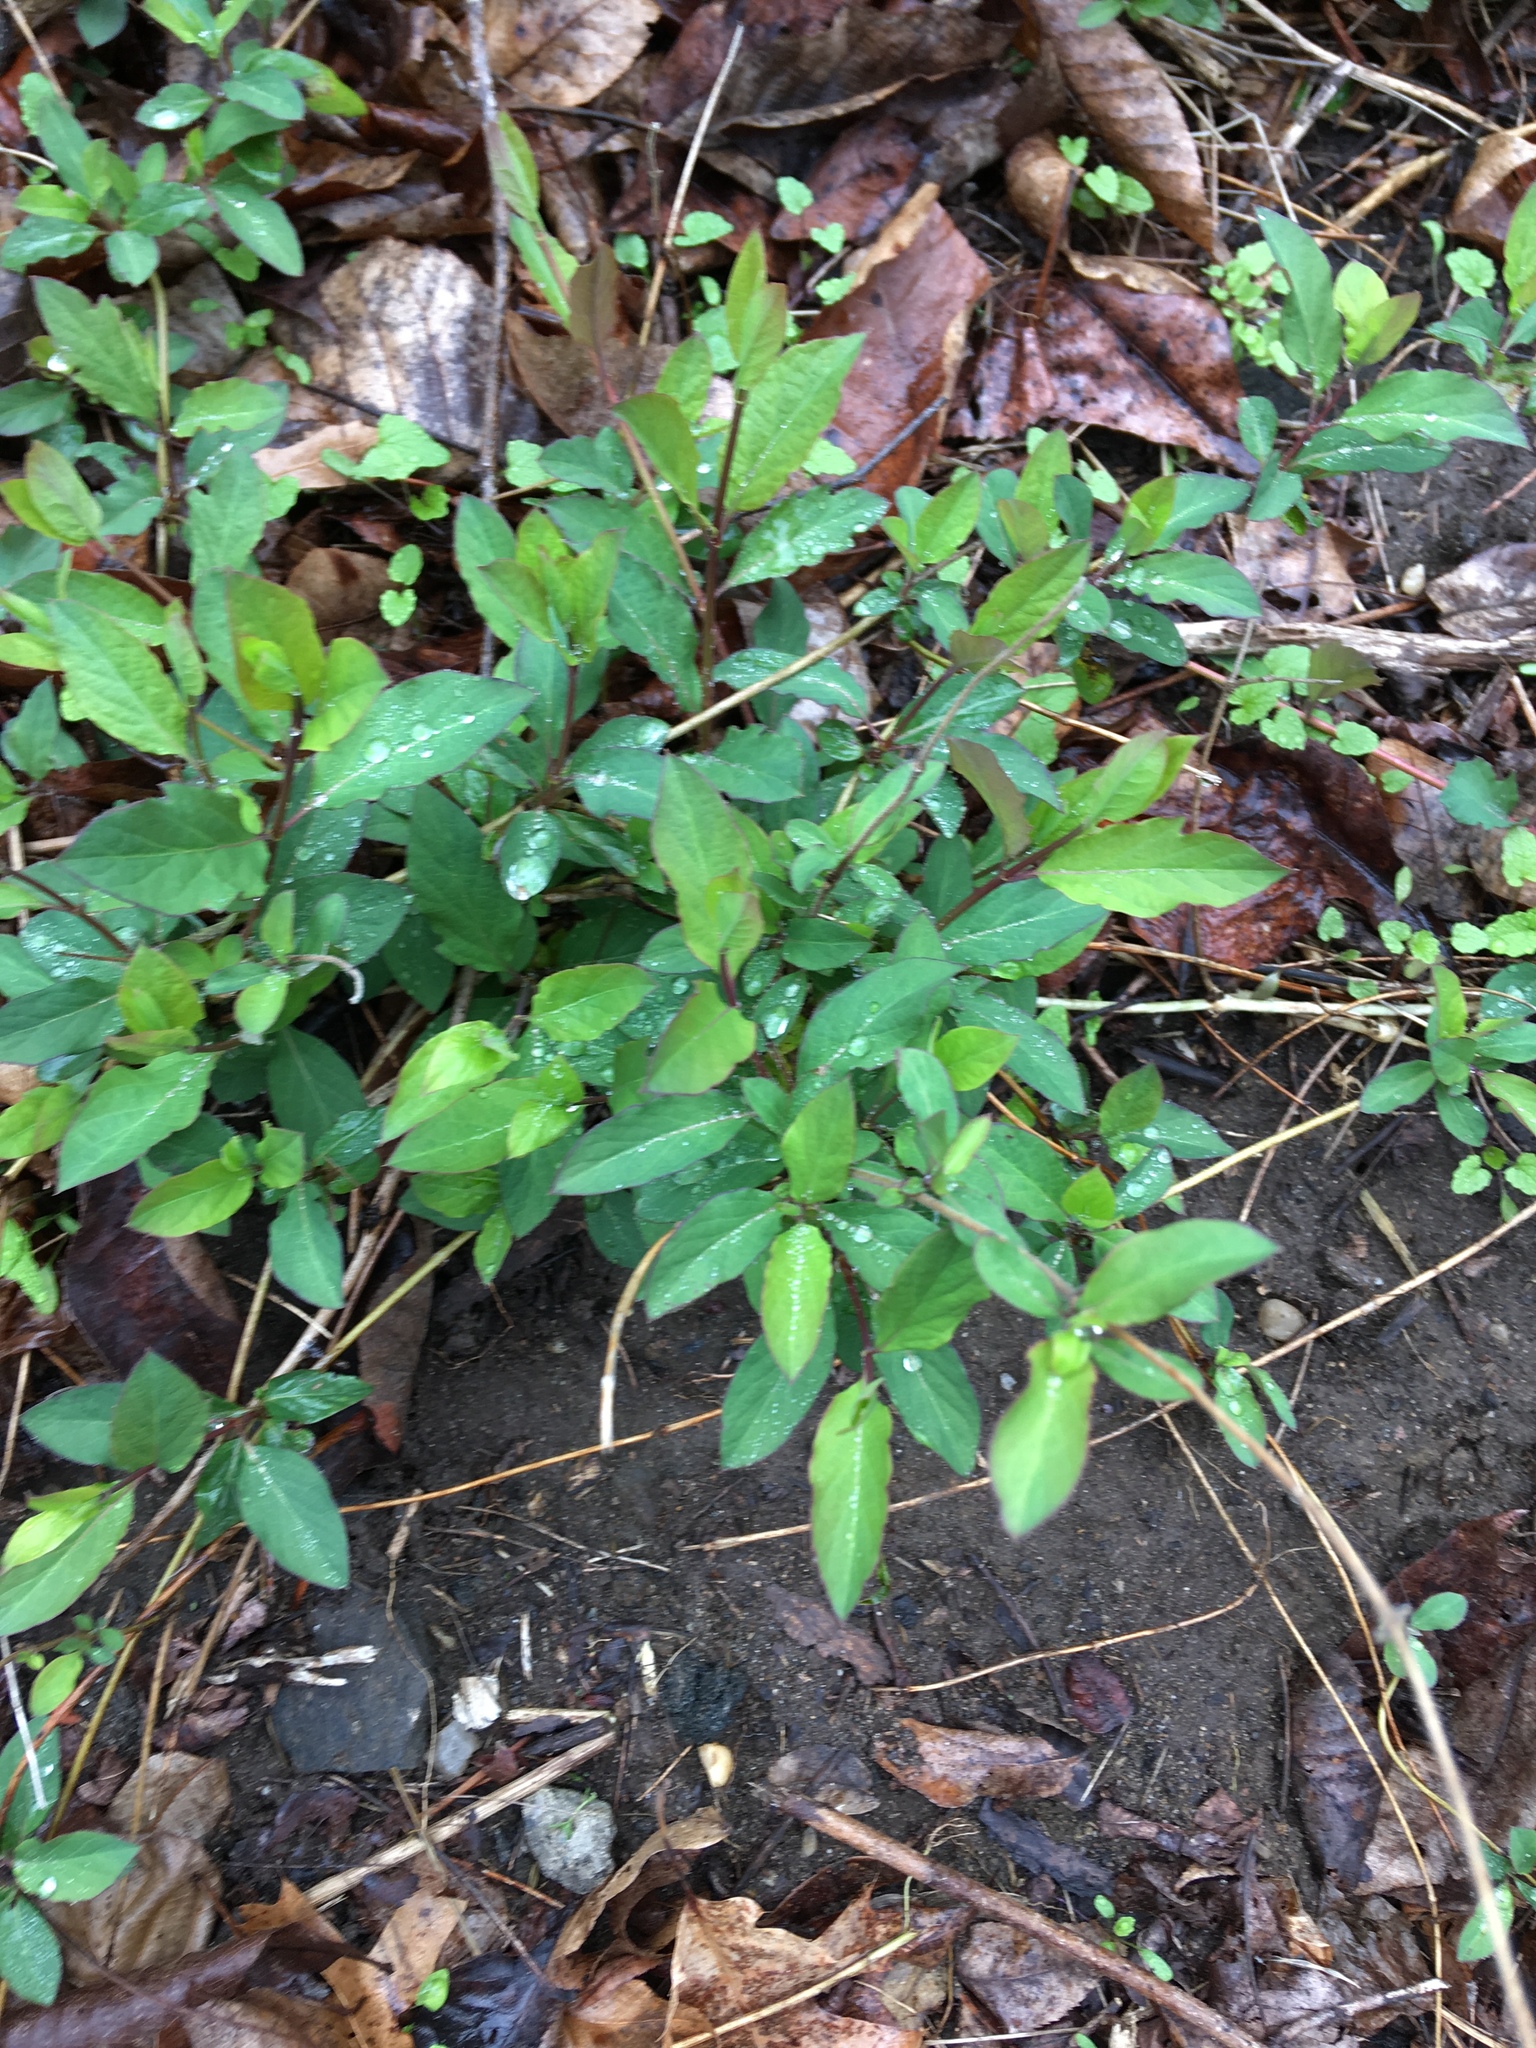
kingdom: Plantae
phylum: Tracheophyta
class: Magnoliopsida
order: Dipsacales
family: Caprifoliaceae
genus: Lonicera
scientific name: Lonicera japonica
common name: Japanese honeysuckle
